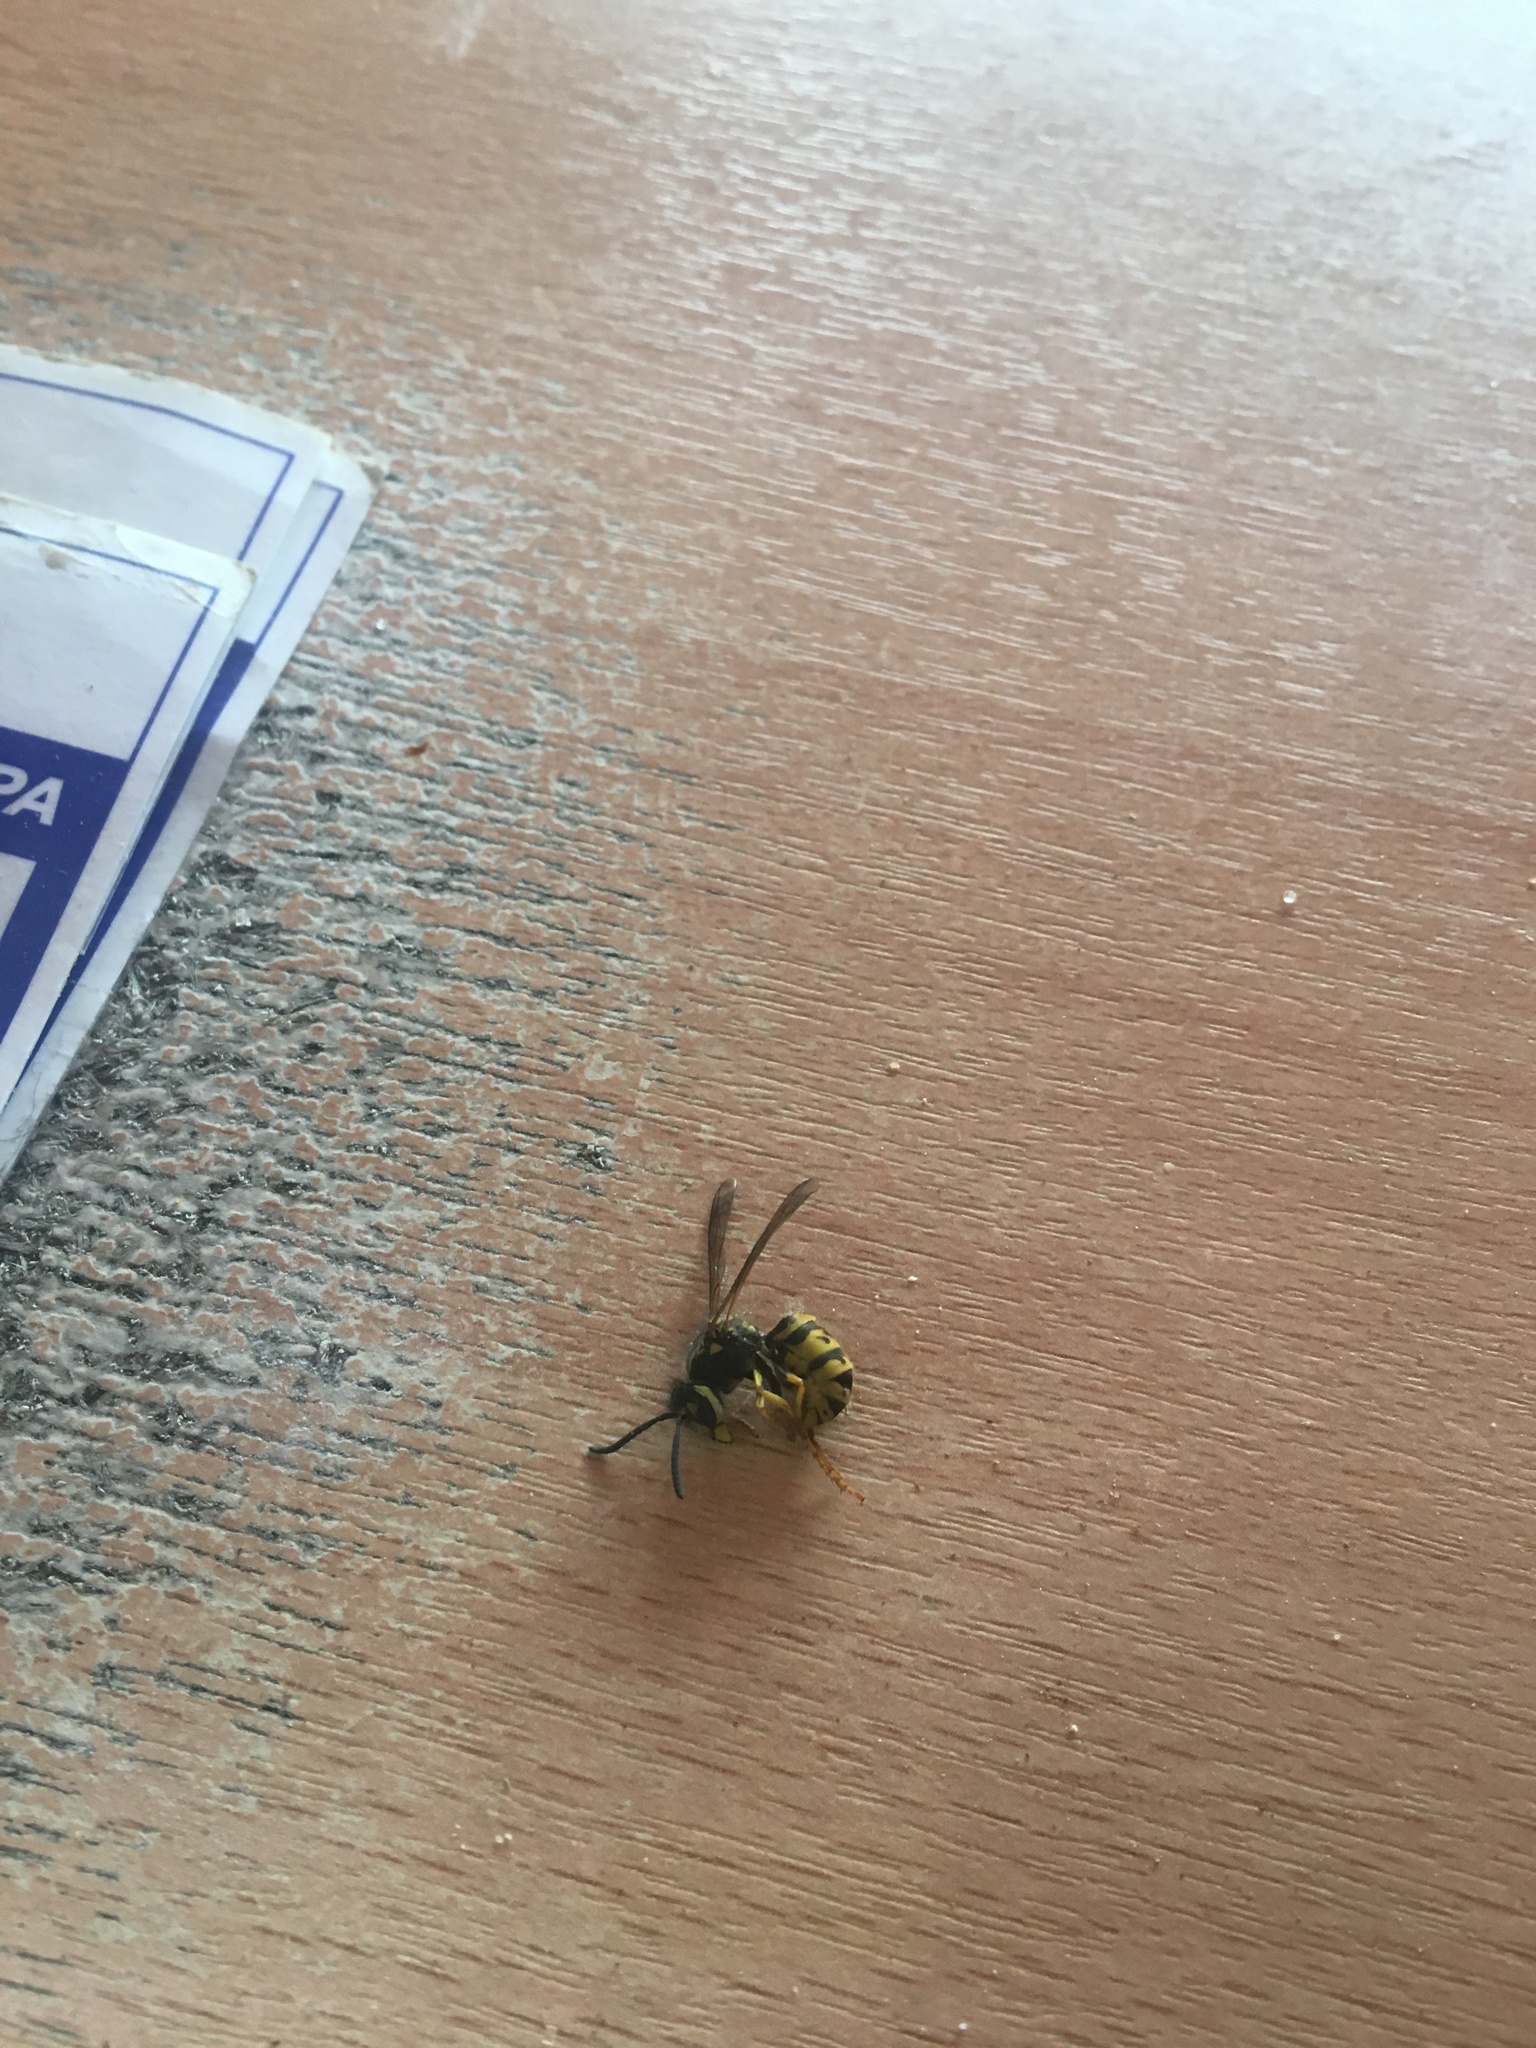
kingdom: Animalia
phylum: Arthropoda
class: Insecta
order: Hymenoptera
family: Vespidae
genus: Vespula
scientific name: Vespula germanica
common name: German wasp
